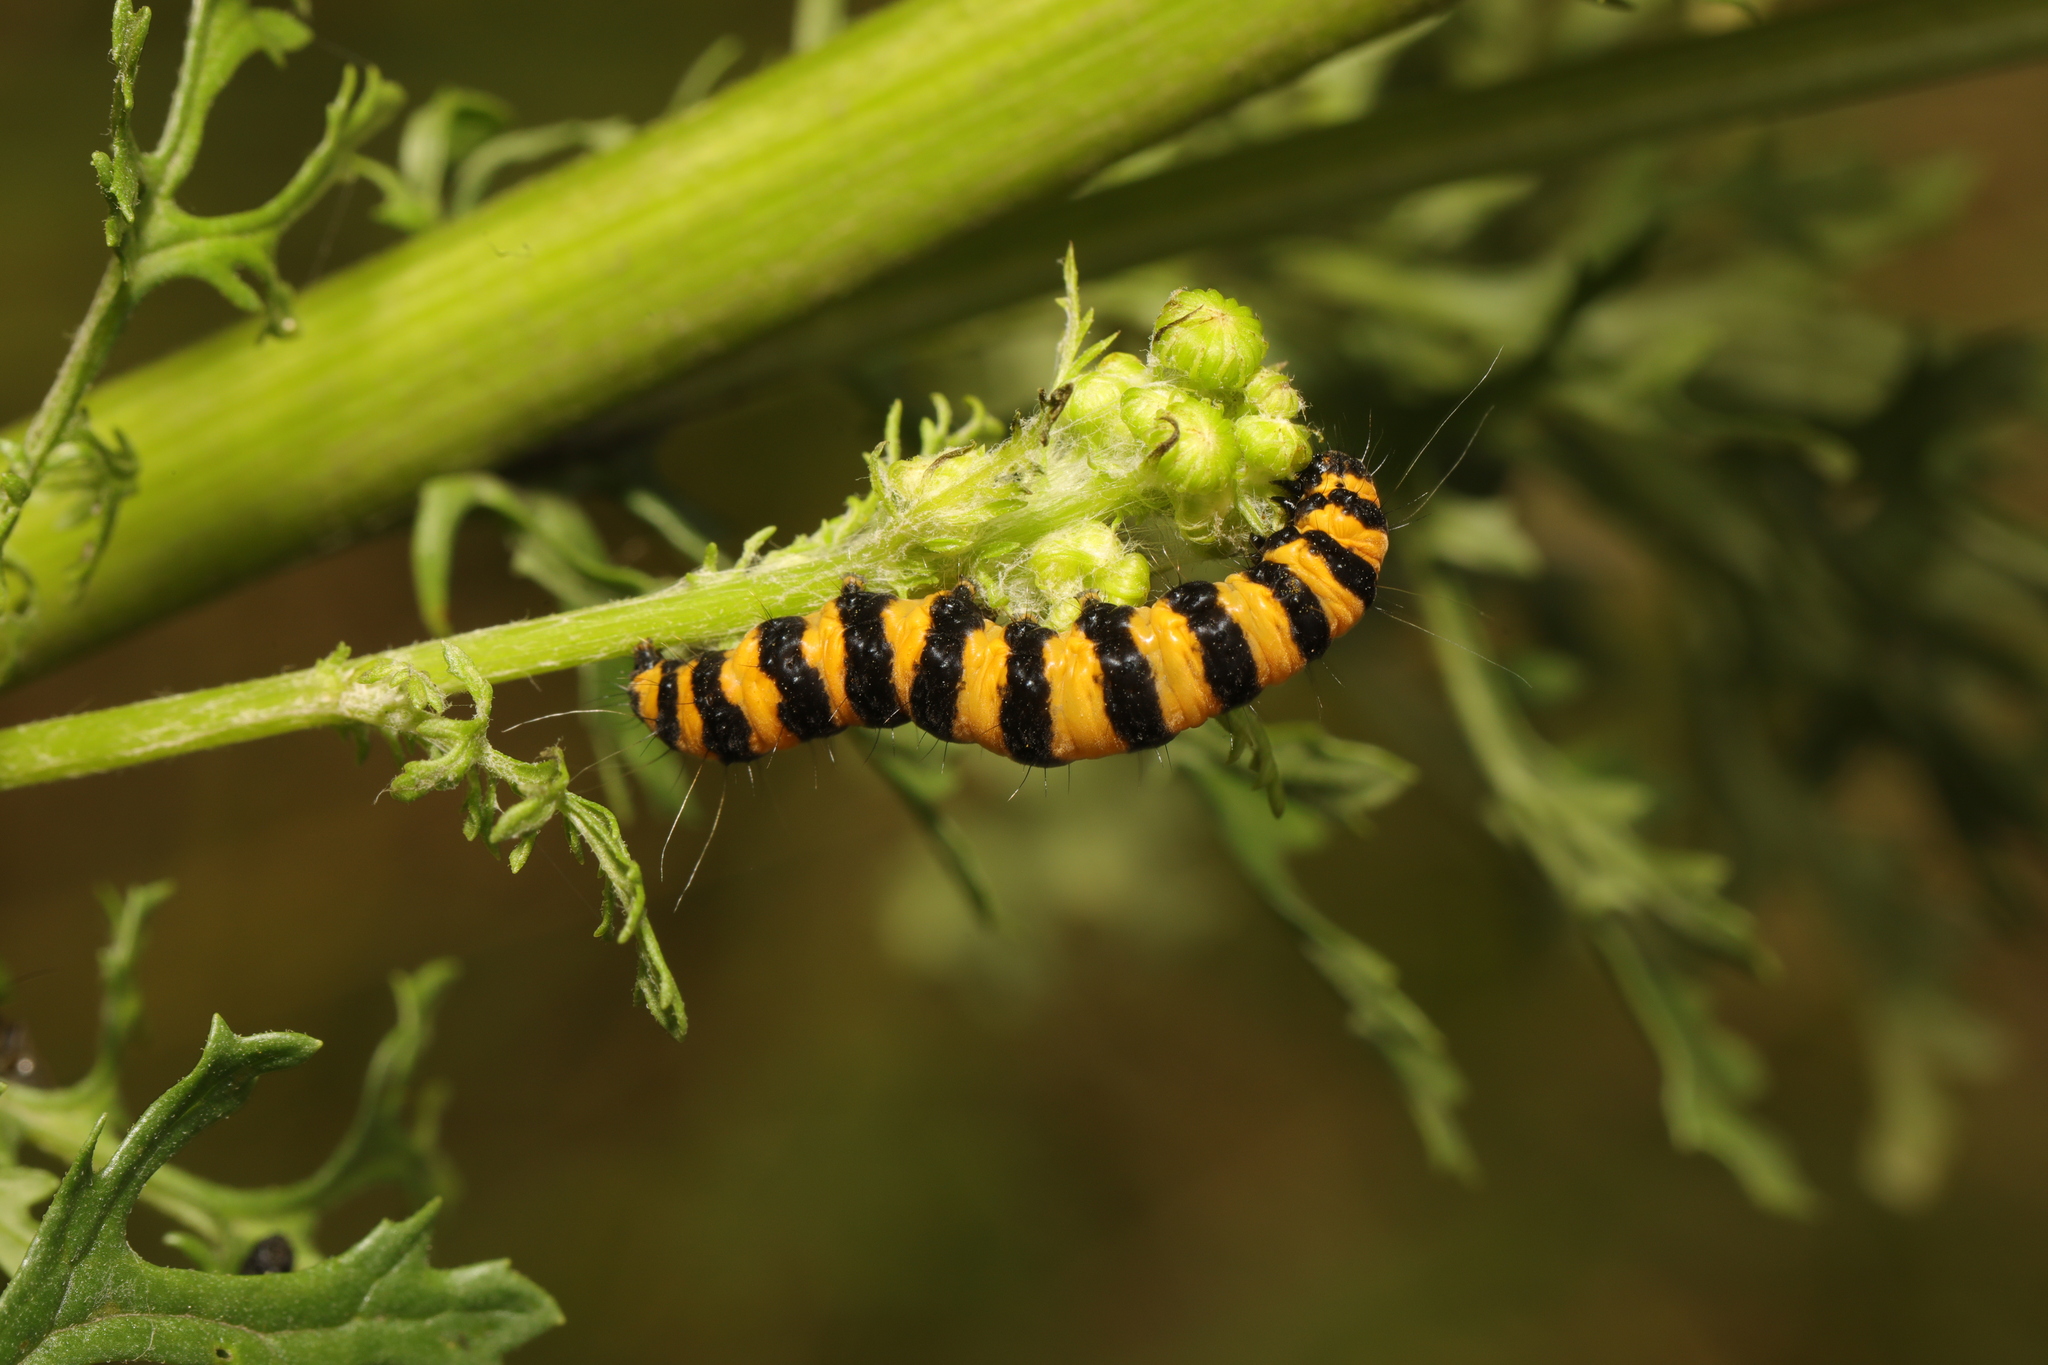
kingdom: Animalia
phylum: Arthropoda
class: Insecta
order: Lepidoptera
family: Erebidae
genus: Tyria
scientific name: Tyria jacobaeae
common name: Cinnabar
